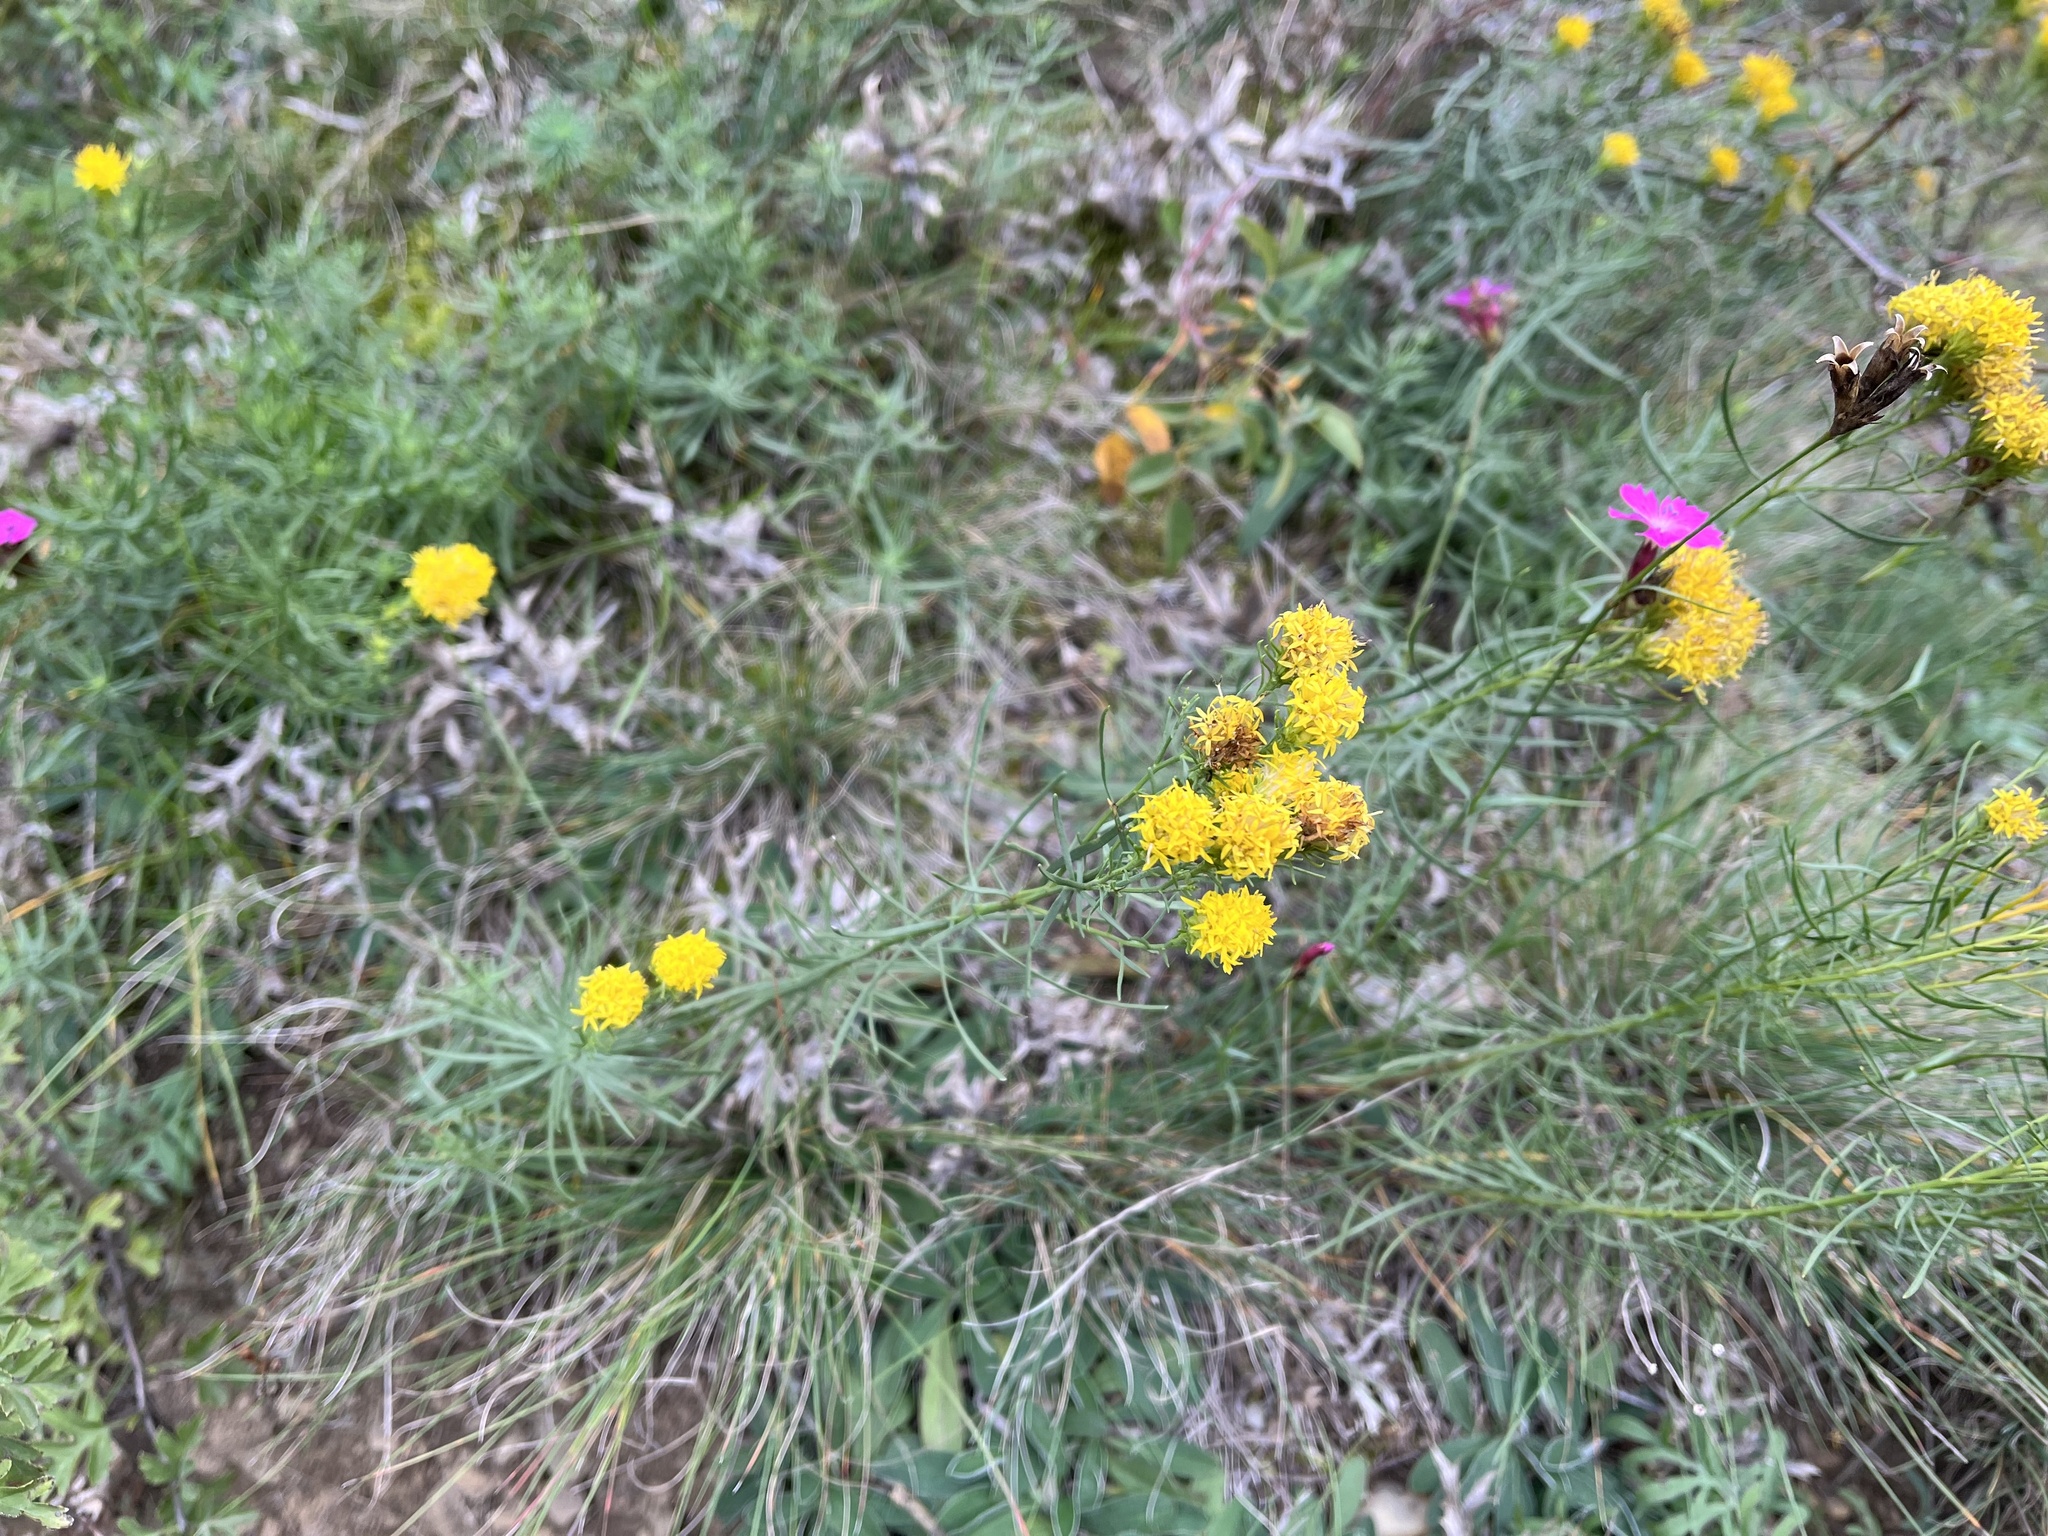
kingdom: Plantae
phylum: Tracheophyta
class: Magnoliopsida
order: Asterales
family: Asteraceae
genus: Galatella
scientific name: Galatella linosyris
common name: Goldilocks aster
